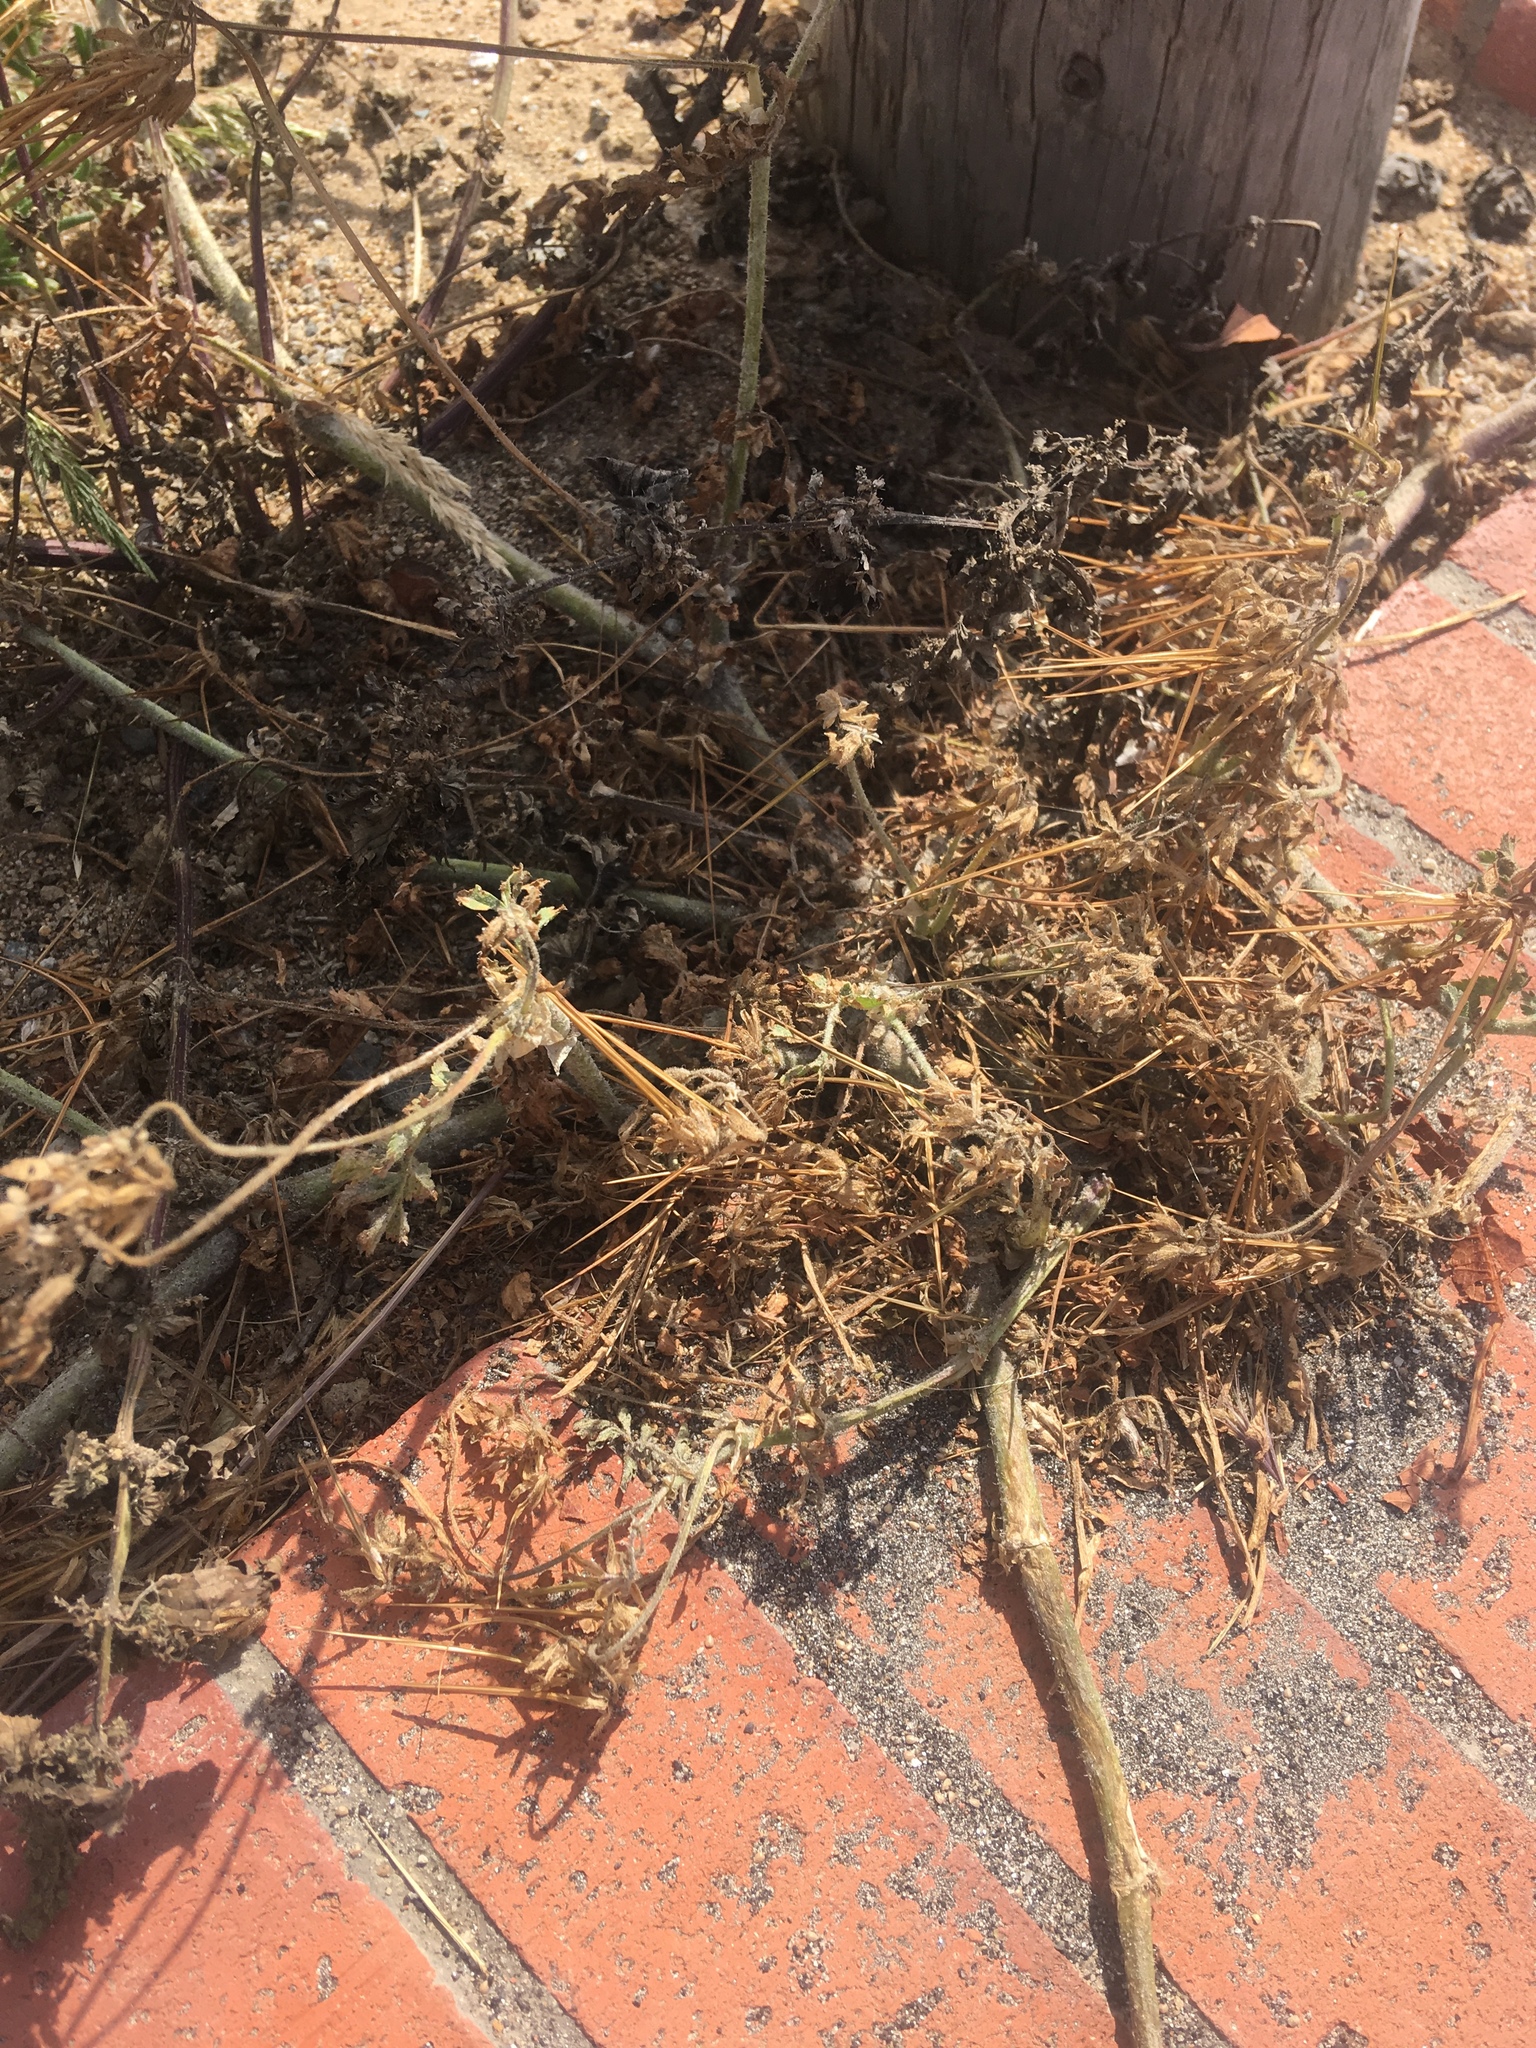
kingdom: Plantae
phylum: Tracheophyta
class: Magnoliopsida
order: Geraniales
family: Geraniaceae
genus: Erodium
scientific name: Erodium cicutarium
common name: Common stork's-bill
